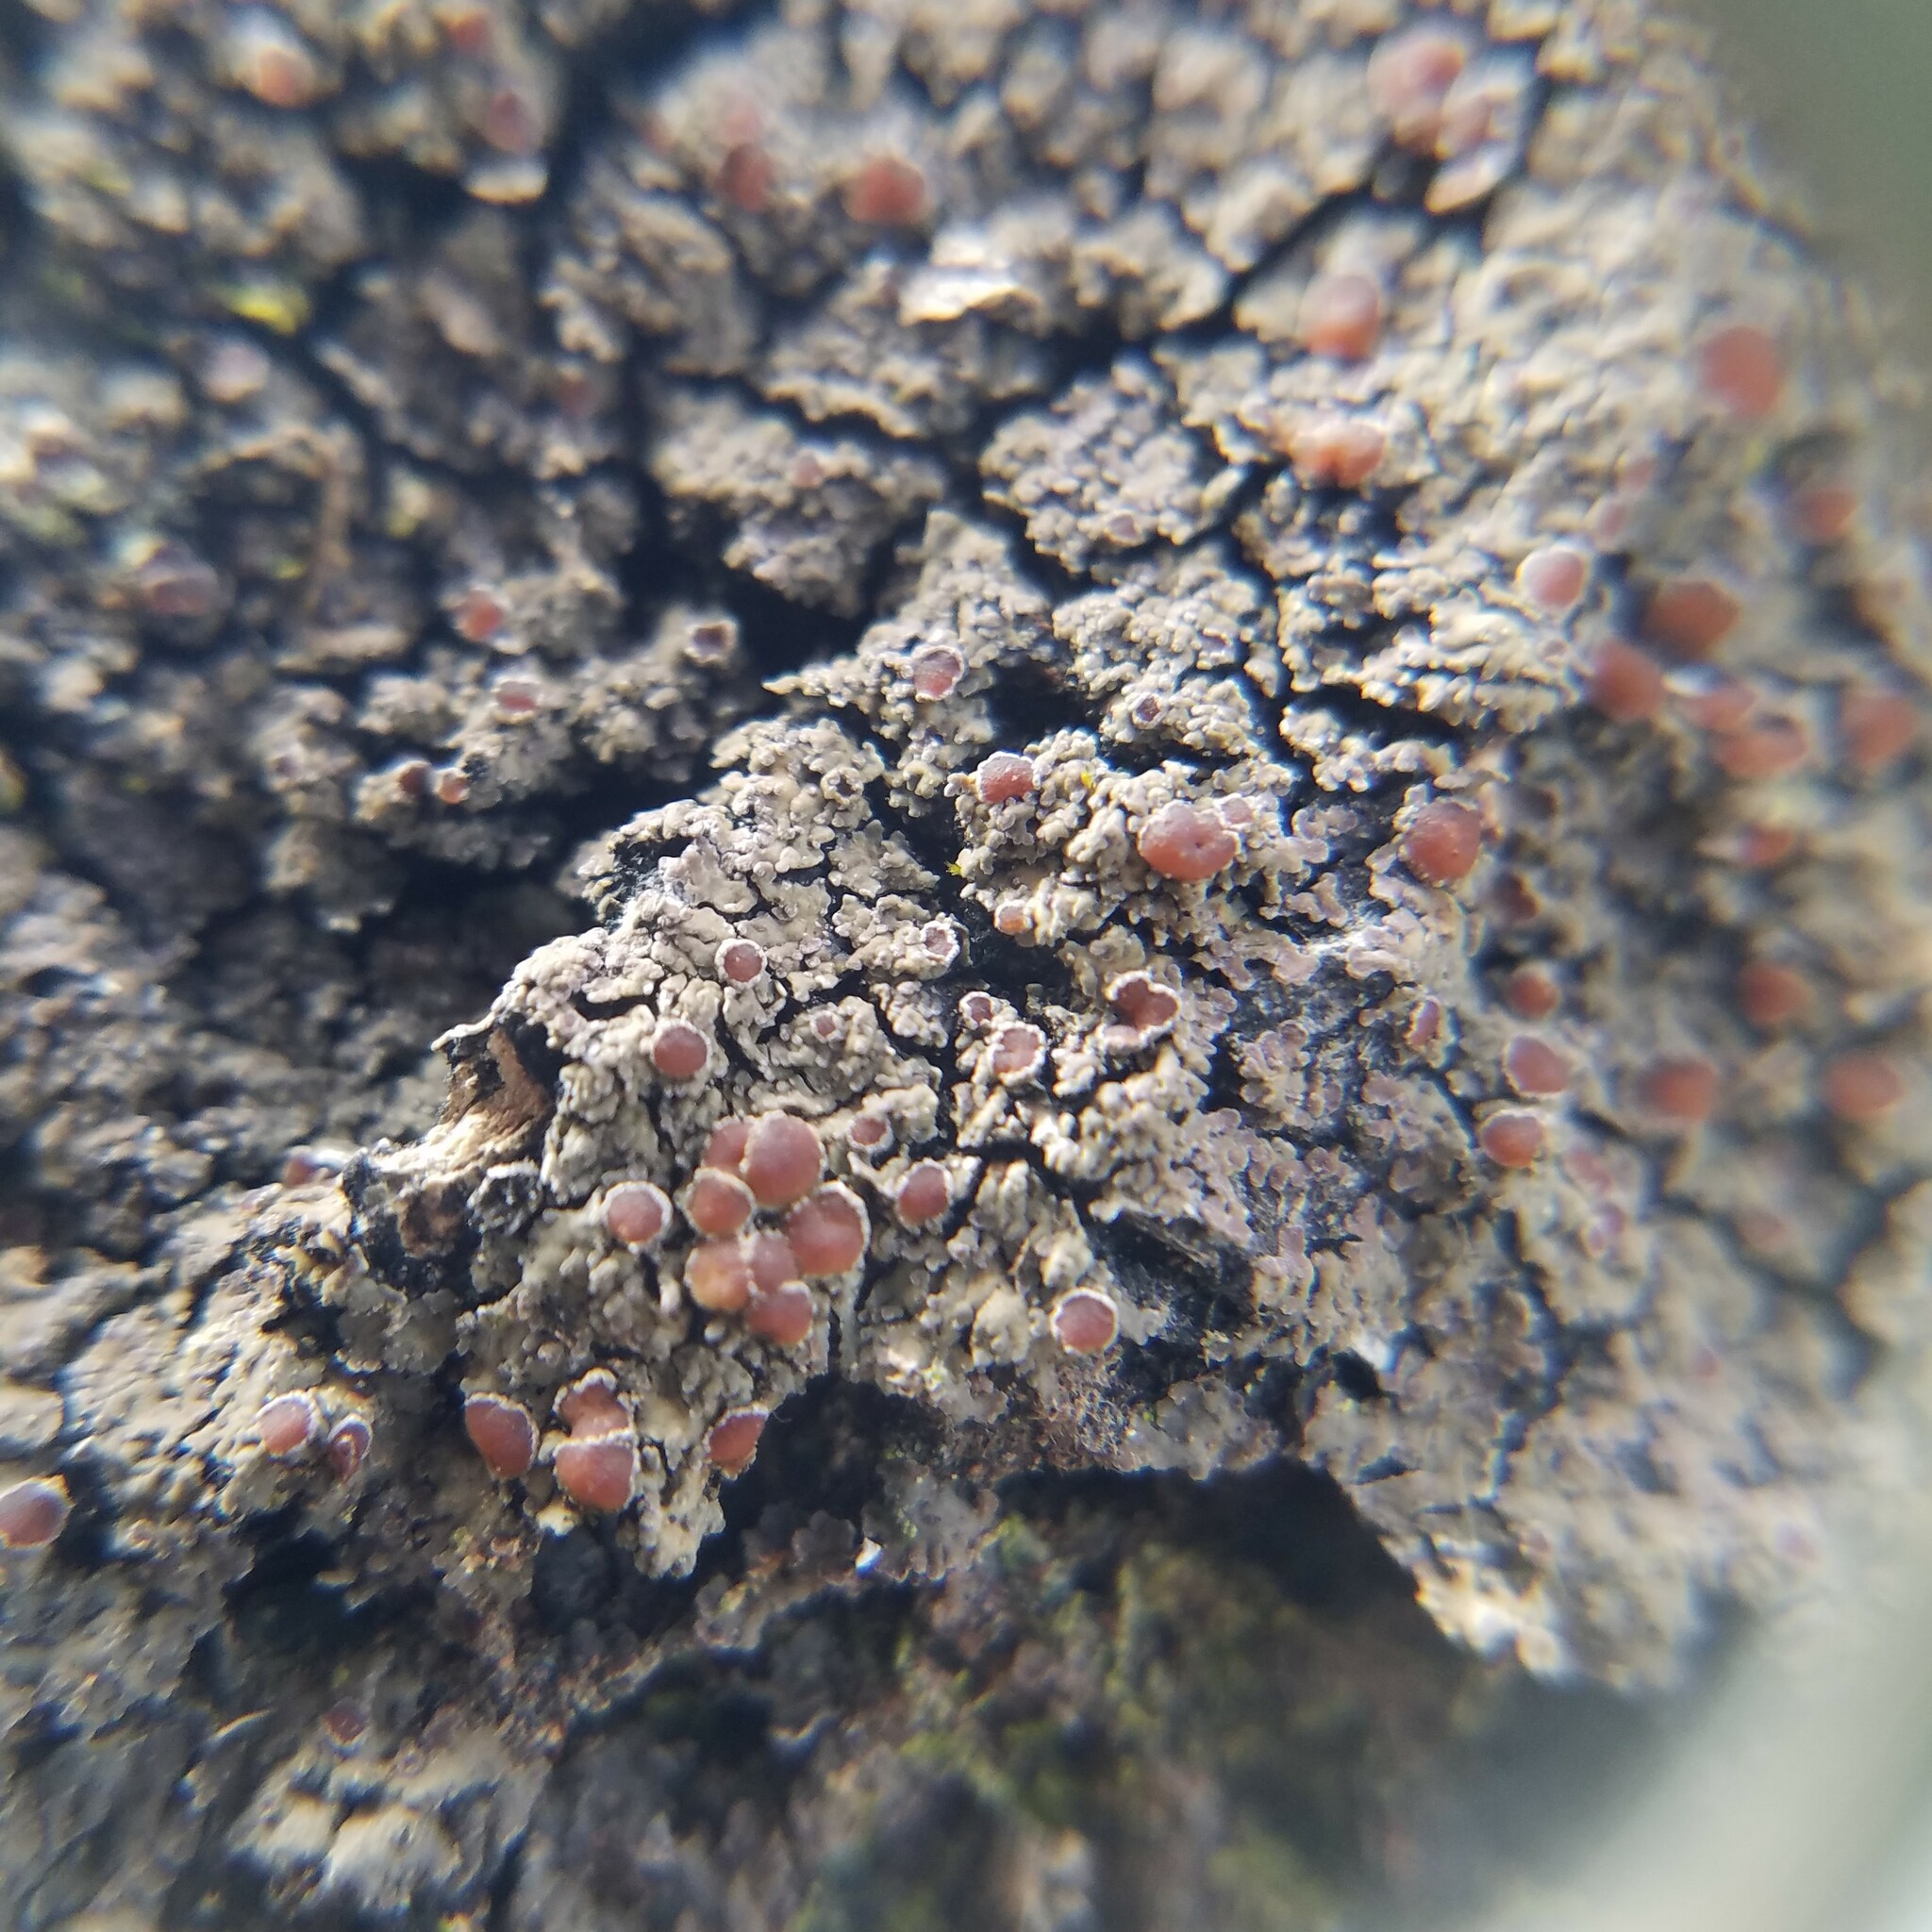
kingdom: Fungi
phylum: Ascomycota
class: Lecanoromycetes
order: Peltigerales
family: Pannariaceae
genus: Fuscopannaria
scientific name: Fuscopannaria leucosticta
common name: Rimmed shingle lichen
